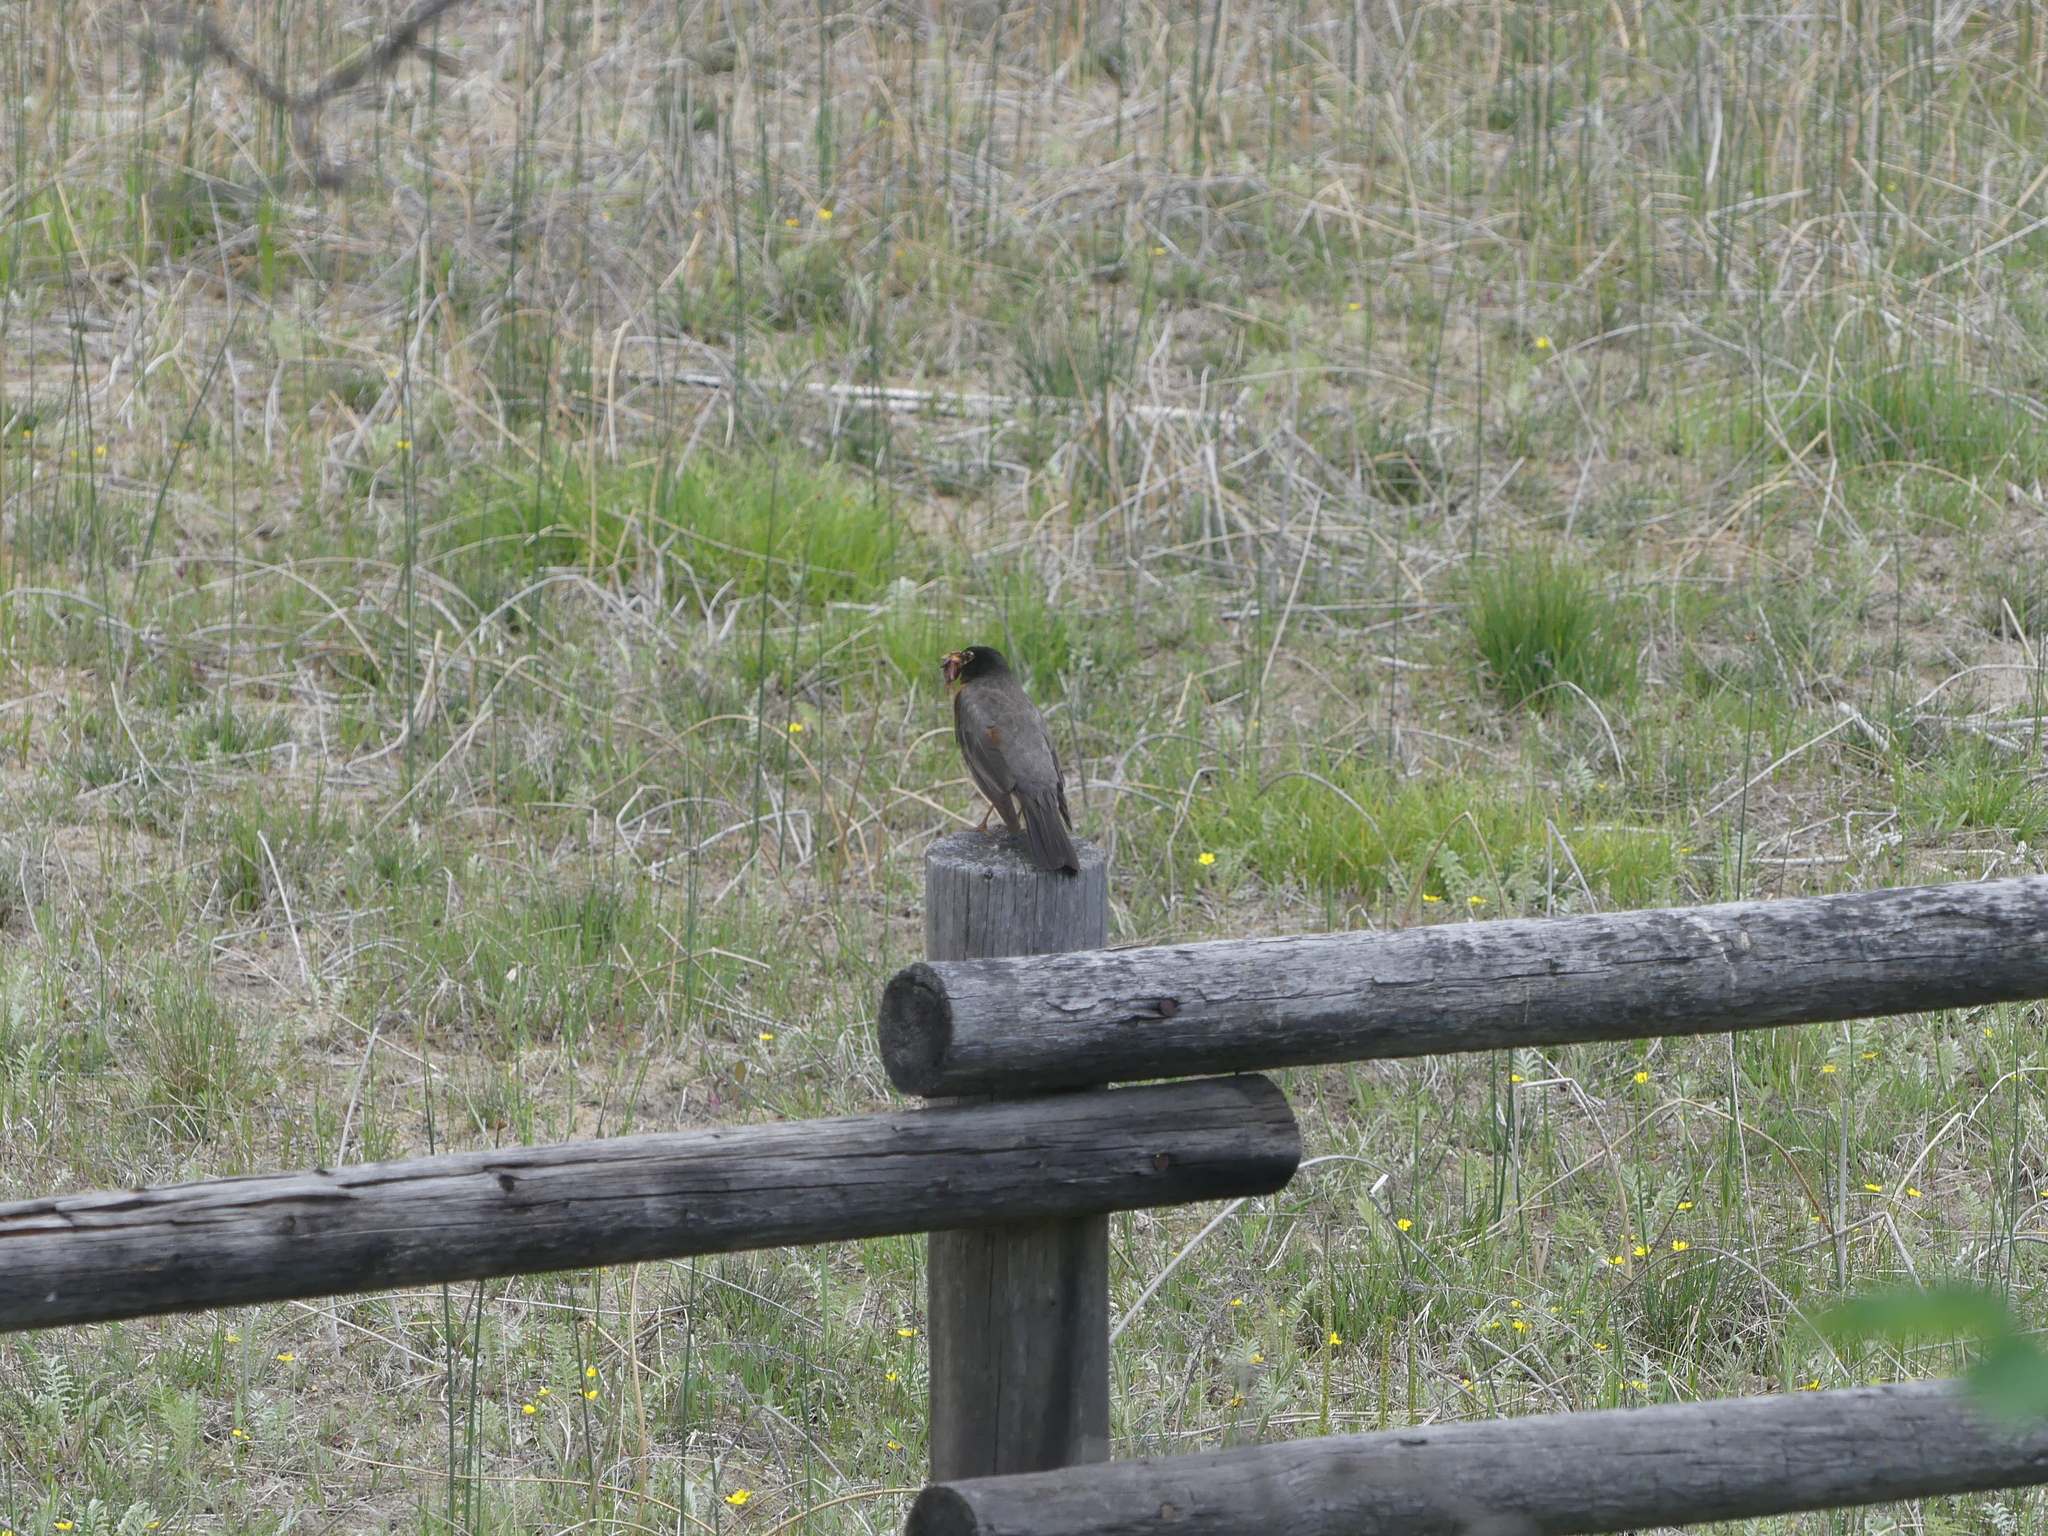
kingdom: Animalia
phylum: Chordata
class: Aves
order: Passeriformes
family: Turdidae
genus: Turdus
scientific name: Turdus migratorius
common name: American robin
